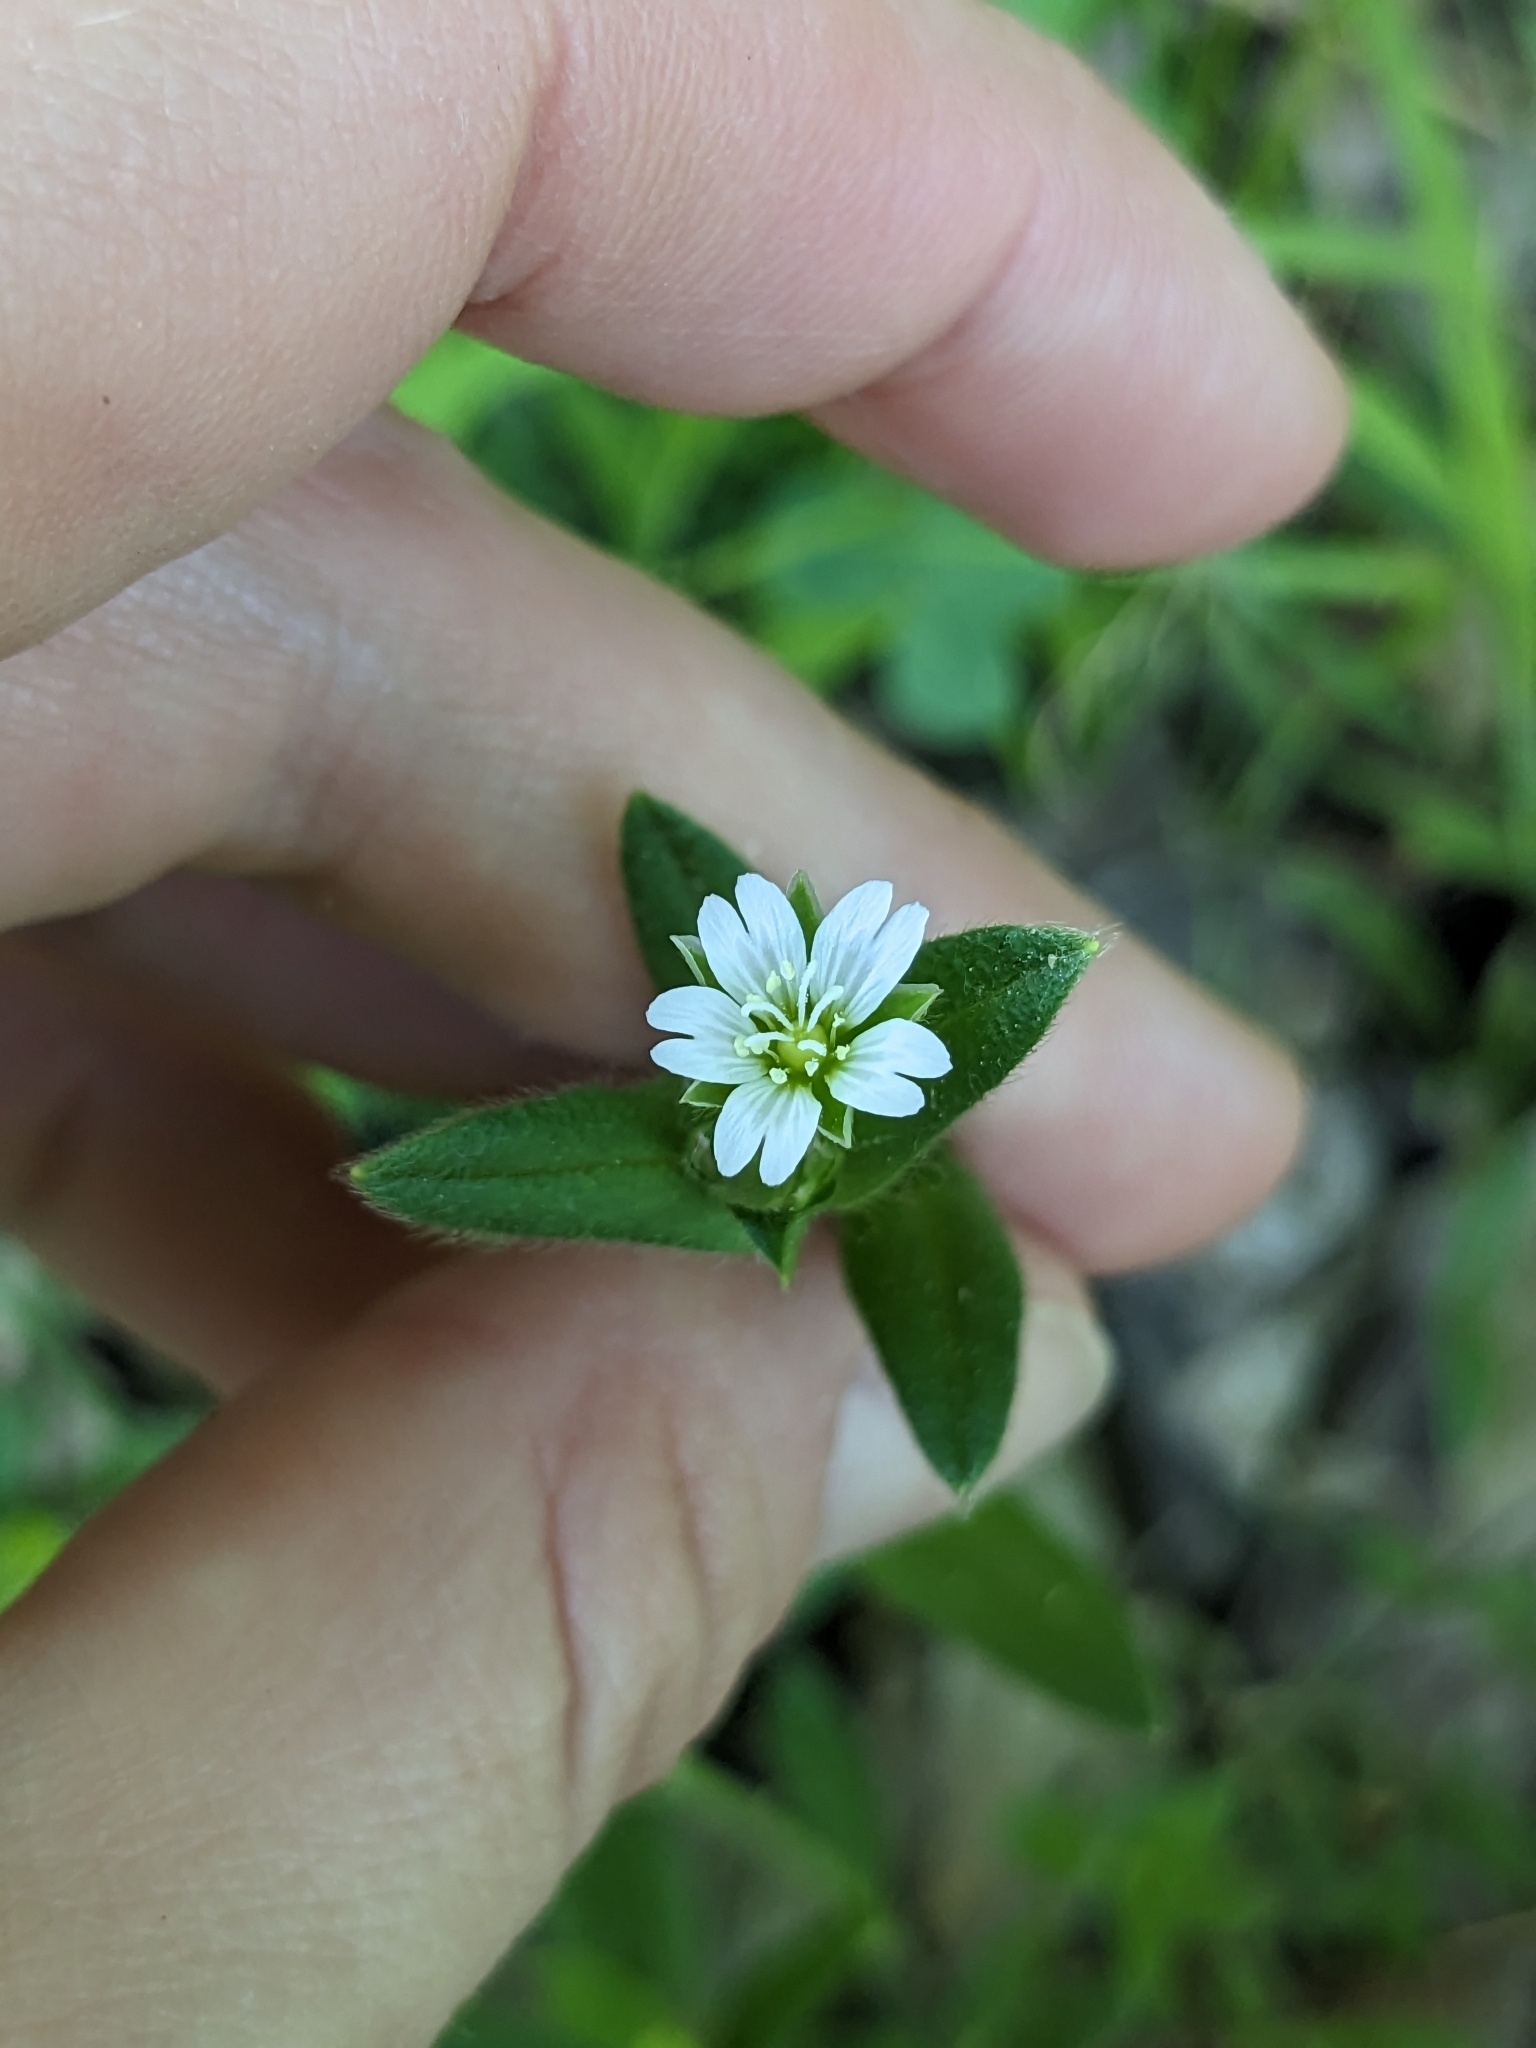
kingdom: Plantae
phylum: Tracheophyta
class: Magnoliopsida
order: Caryophyllales
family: Caryophyllaceae
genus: Cerastium
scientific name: Cerastium fontanum
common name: Common mouse-ear
